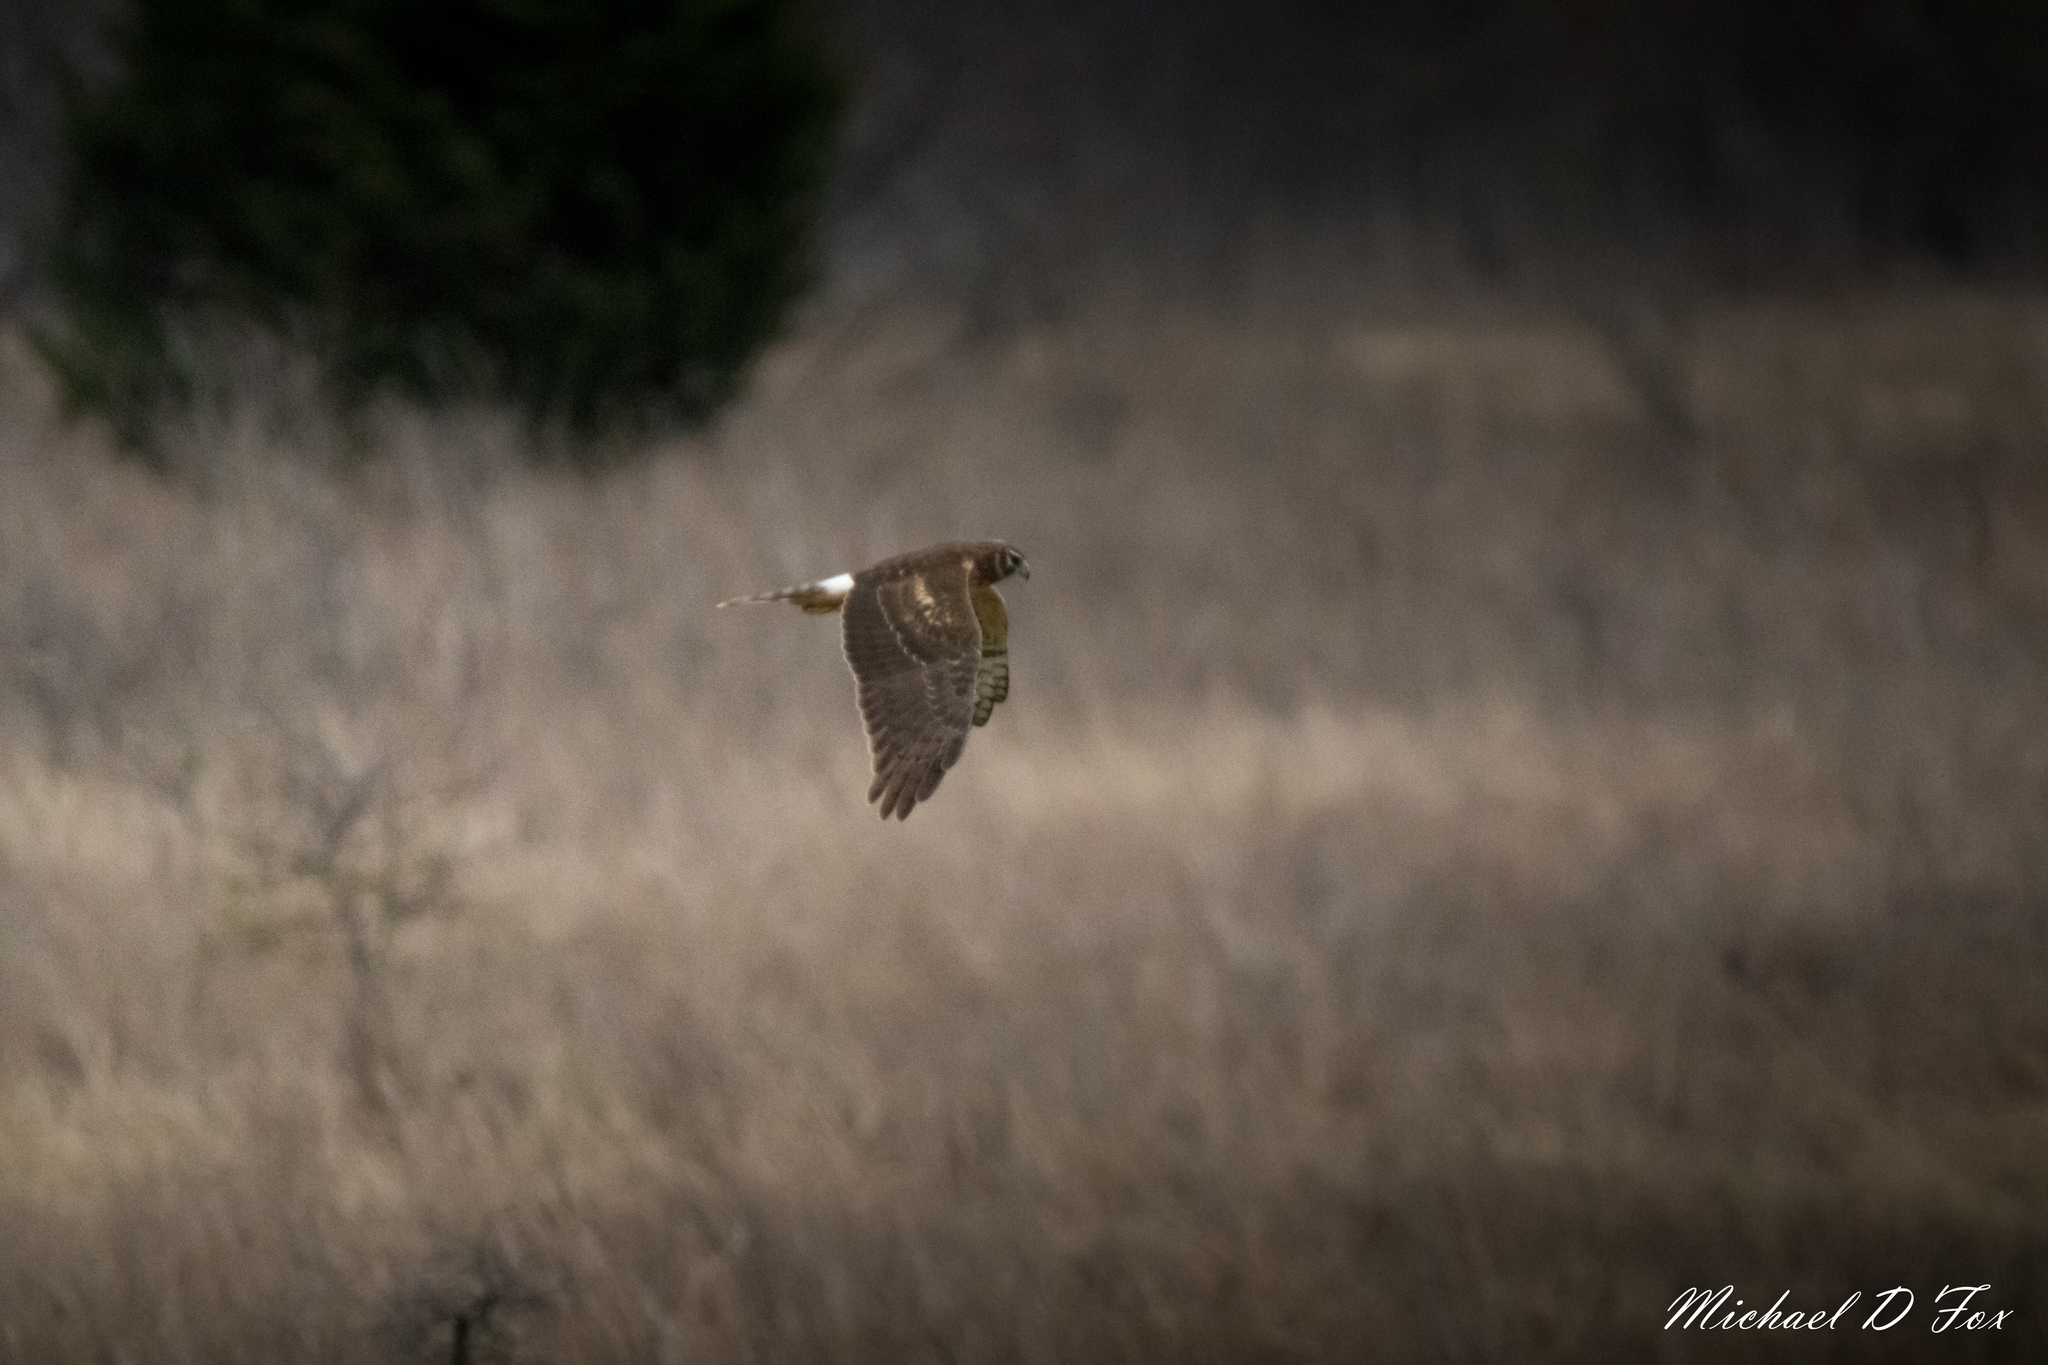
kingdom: Animalia
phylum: Chordata
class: Aves
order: Accipitriformes
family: Accipitridae
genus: Circus
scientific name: Circus cyaneus
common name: Hen harrier
